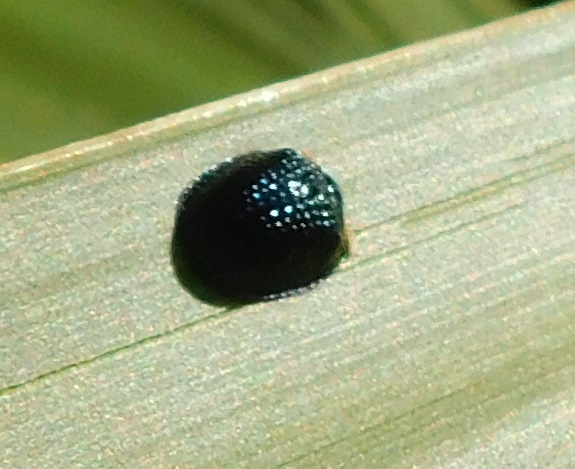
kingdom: Animalia
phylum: Arthropoda
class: Insecta
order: Coleoptera
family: Chrysomelidae
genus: Hemisphaerota
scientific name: Hemisphaerota cyanea
